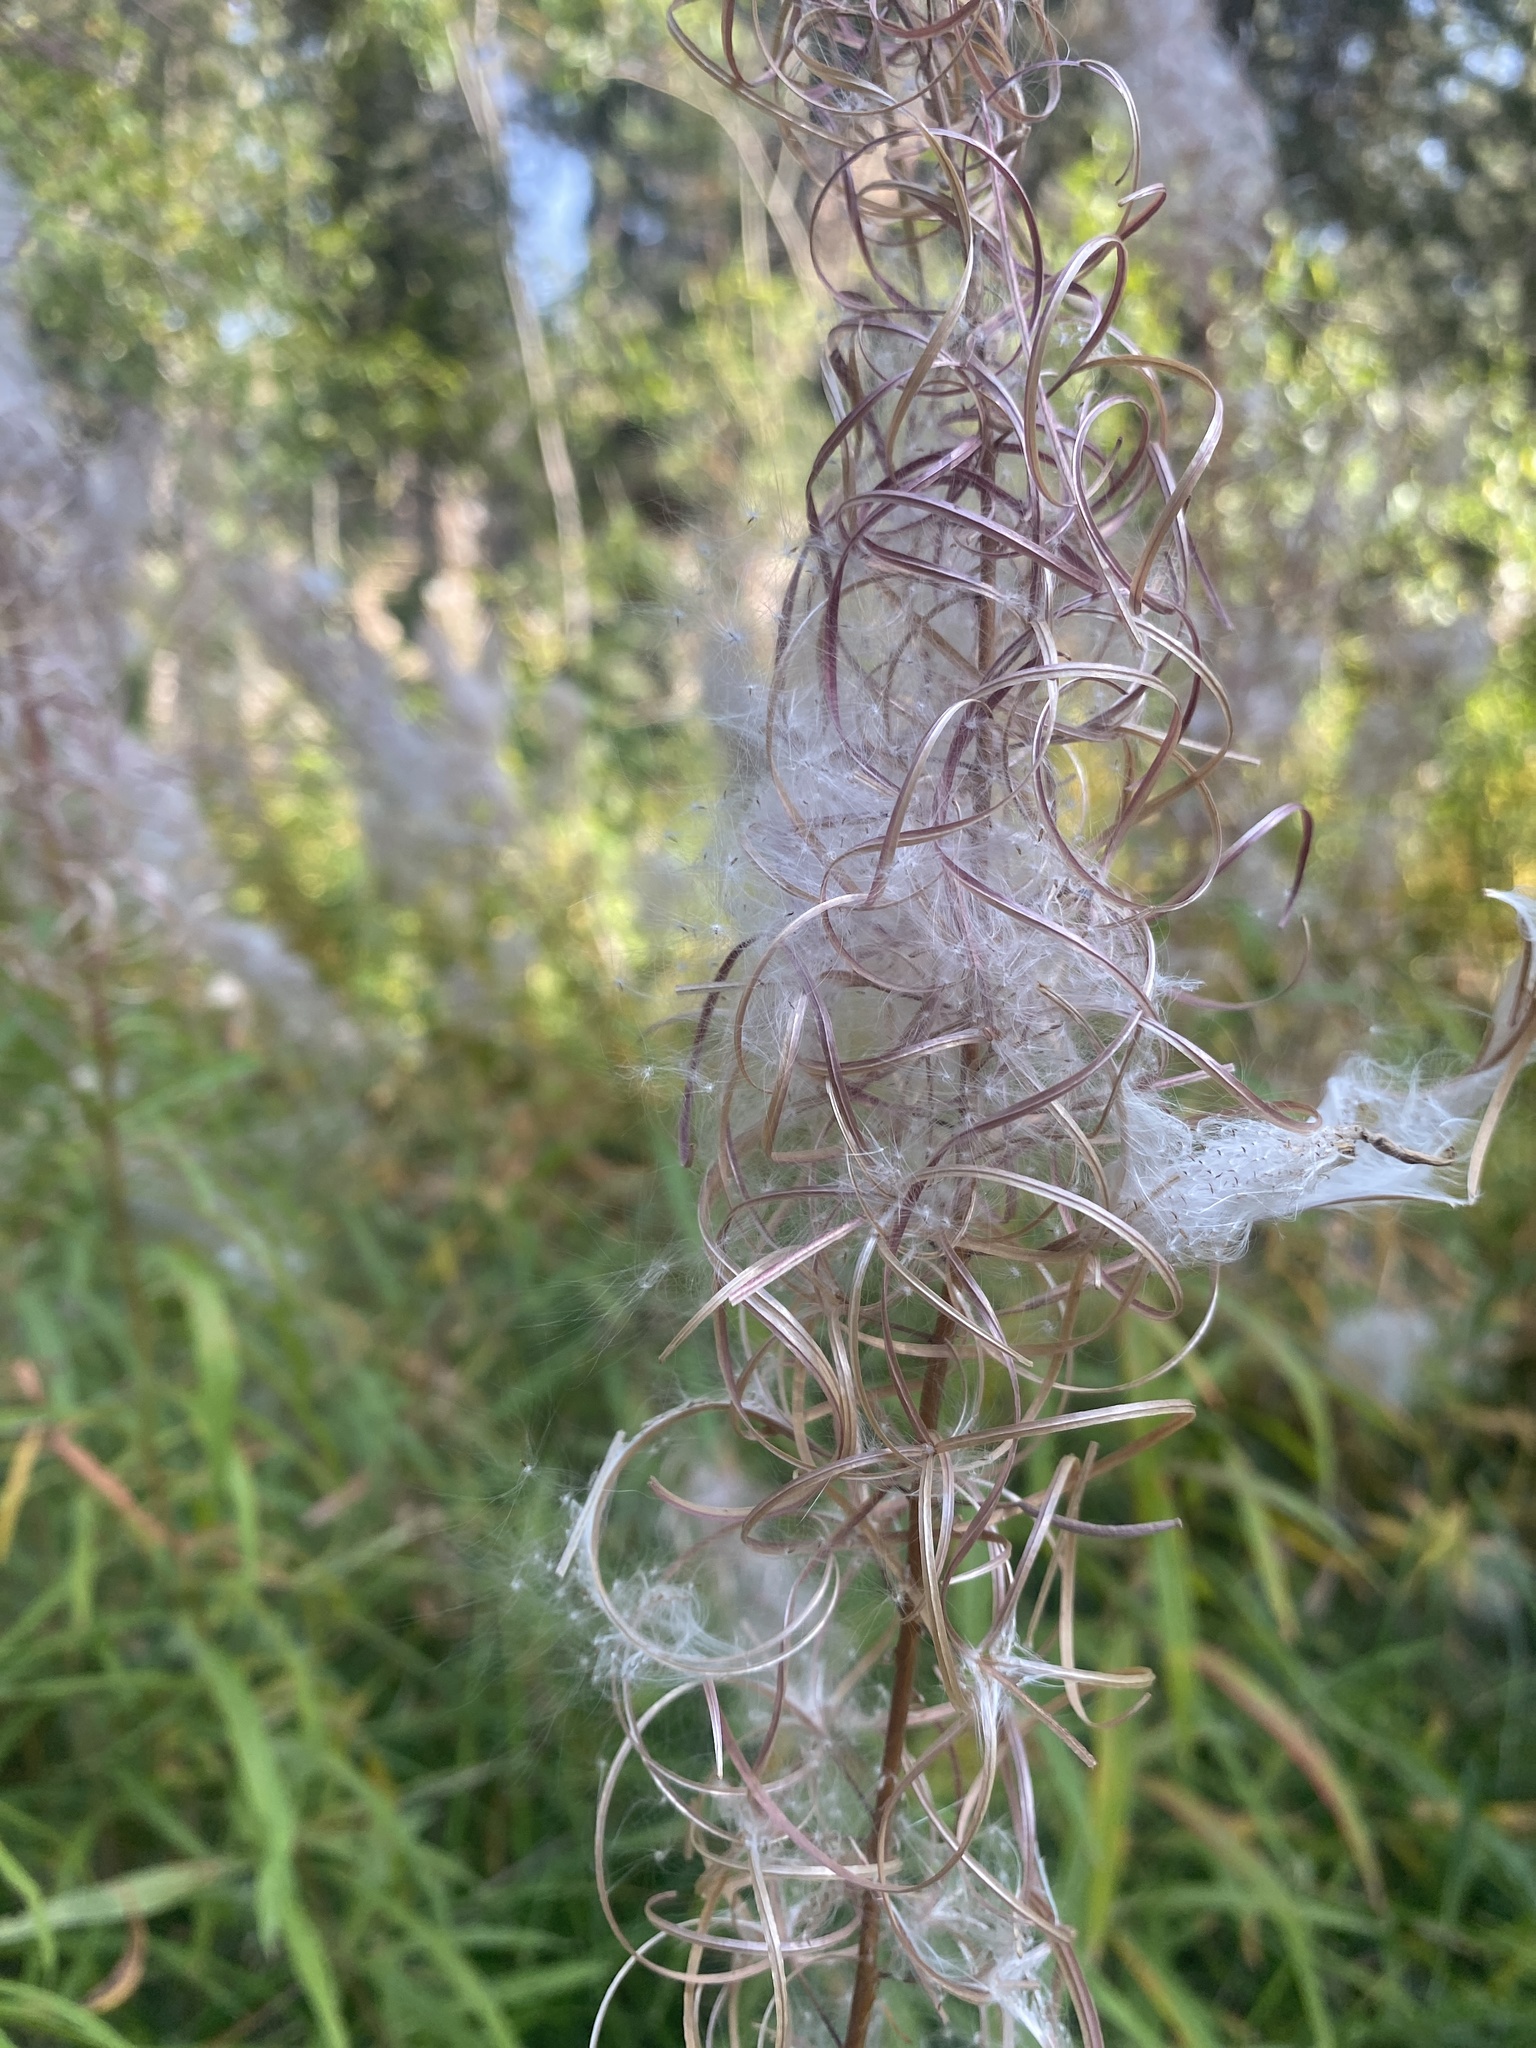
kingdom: Plantae
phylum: Tracheophyta
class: Magnoliopsida
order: Myrtales
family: Onagraceae
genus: Chamaenerion
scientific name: Chamaenerion angustifolium
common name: Fireweed
